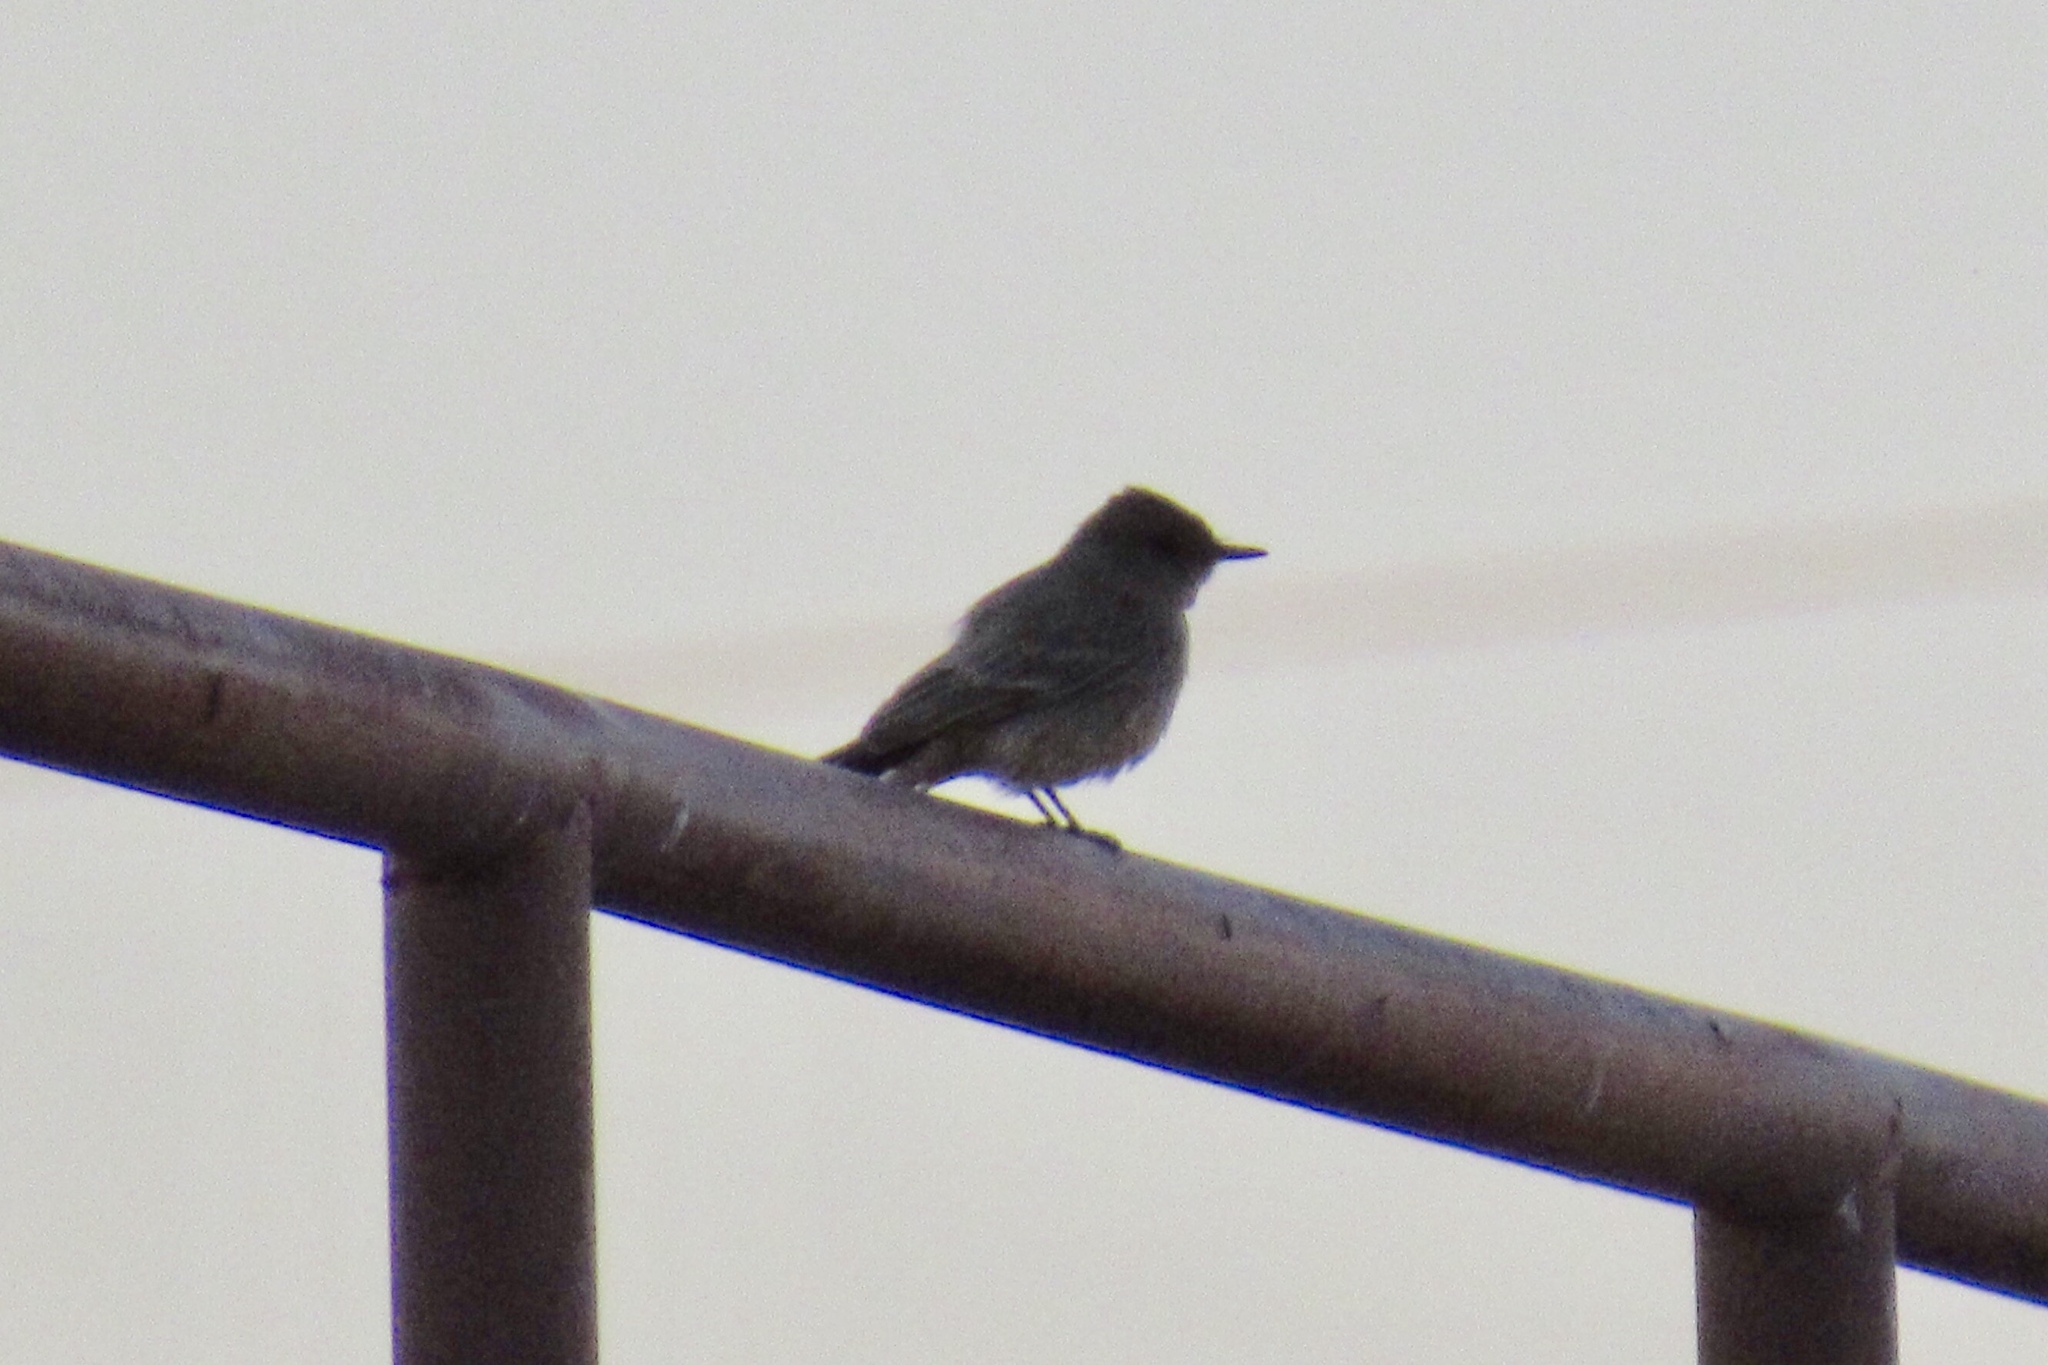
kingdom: Animalia
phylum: Chordata
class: Aves
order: Passeriformes
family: Tyrannidae
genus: Sayornis
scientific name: Sayornis saya
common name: Say's phoebe
